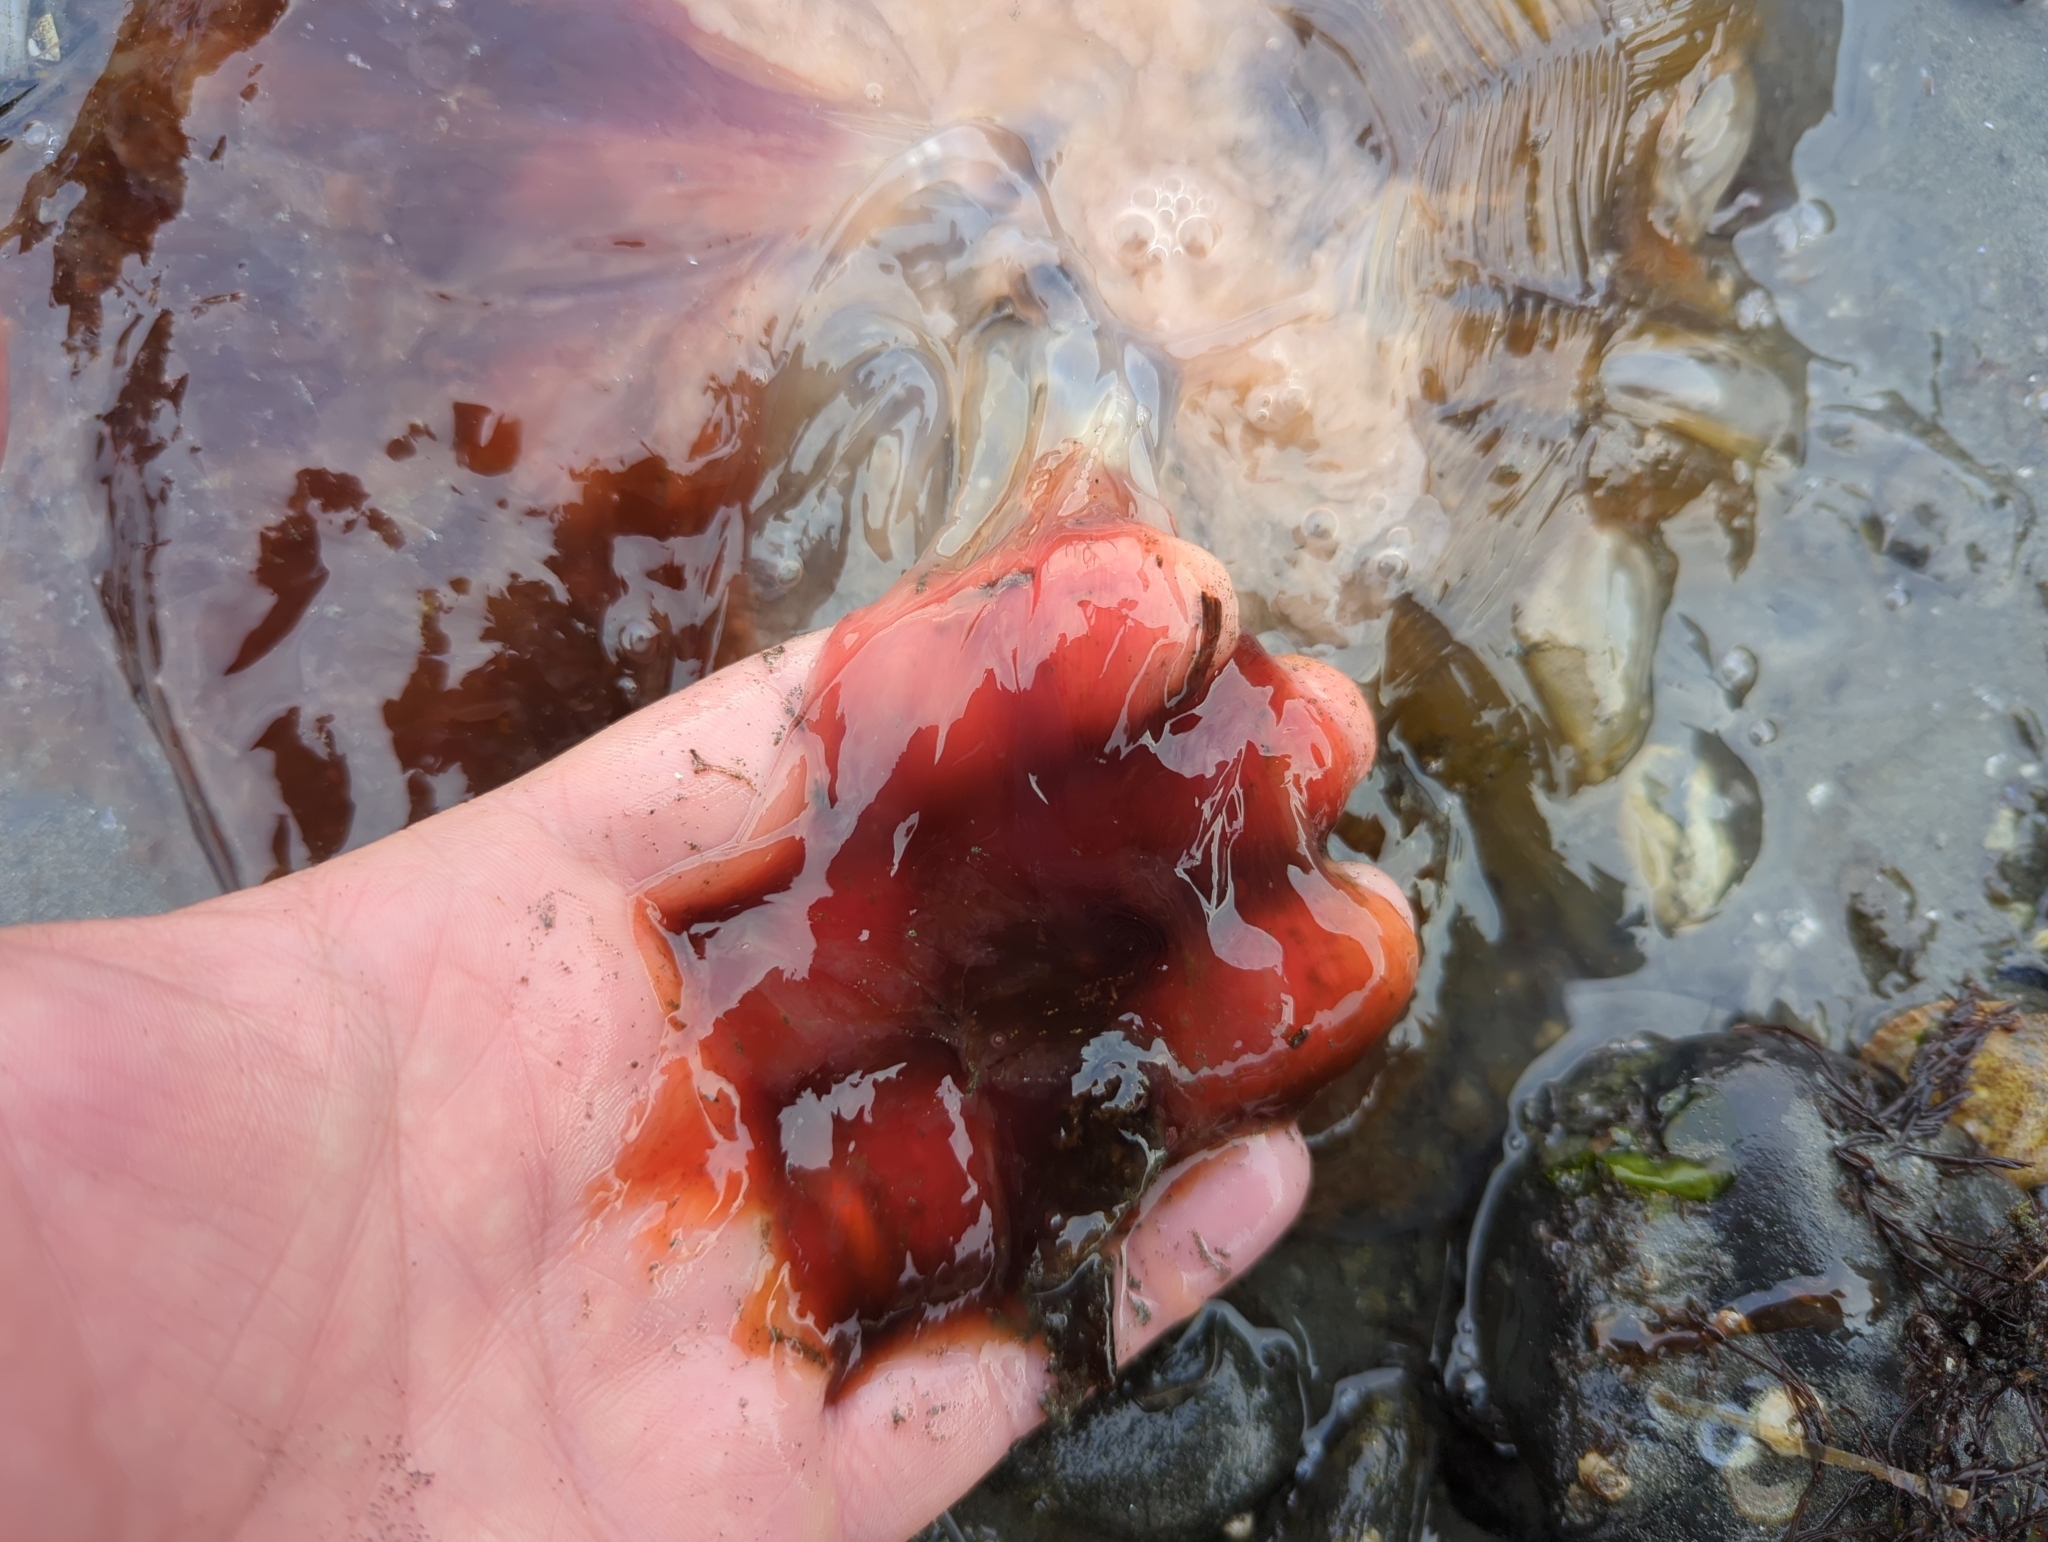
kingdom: Animalia
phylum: Cnidaria
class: Scyphozoa
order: Semaeostomeae
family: Cyaneidae
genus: Cyanea
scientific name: Cyanea ferruginea
